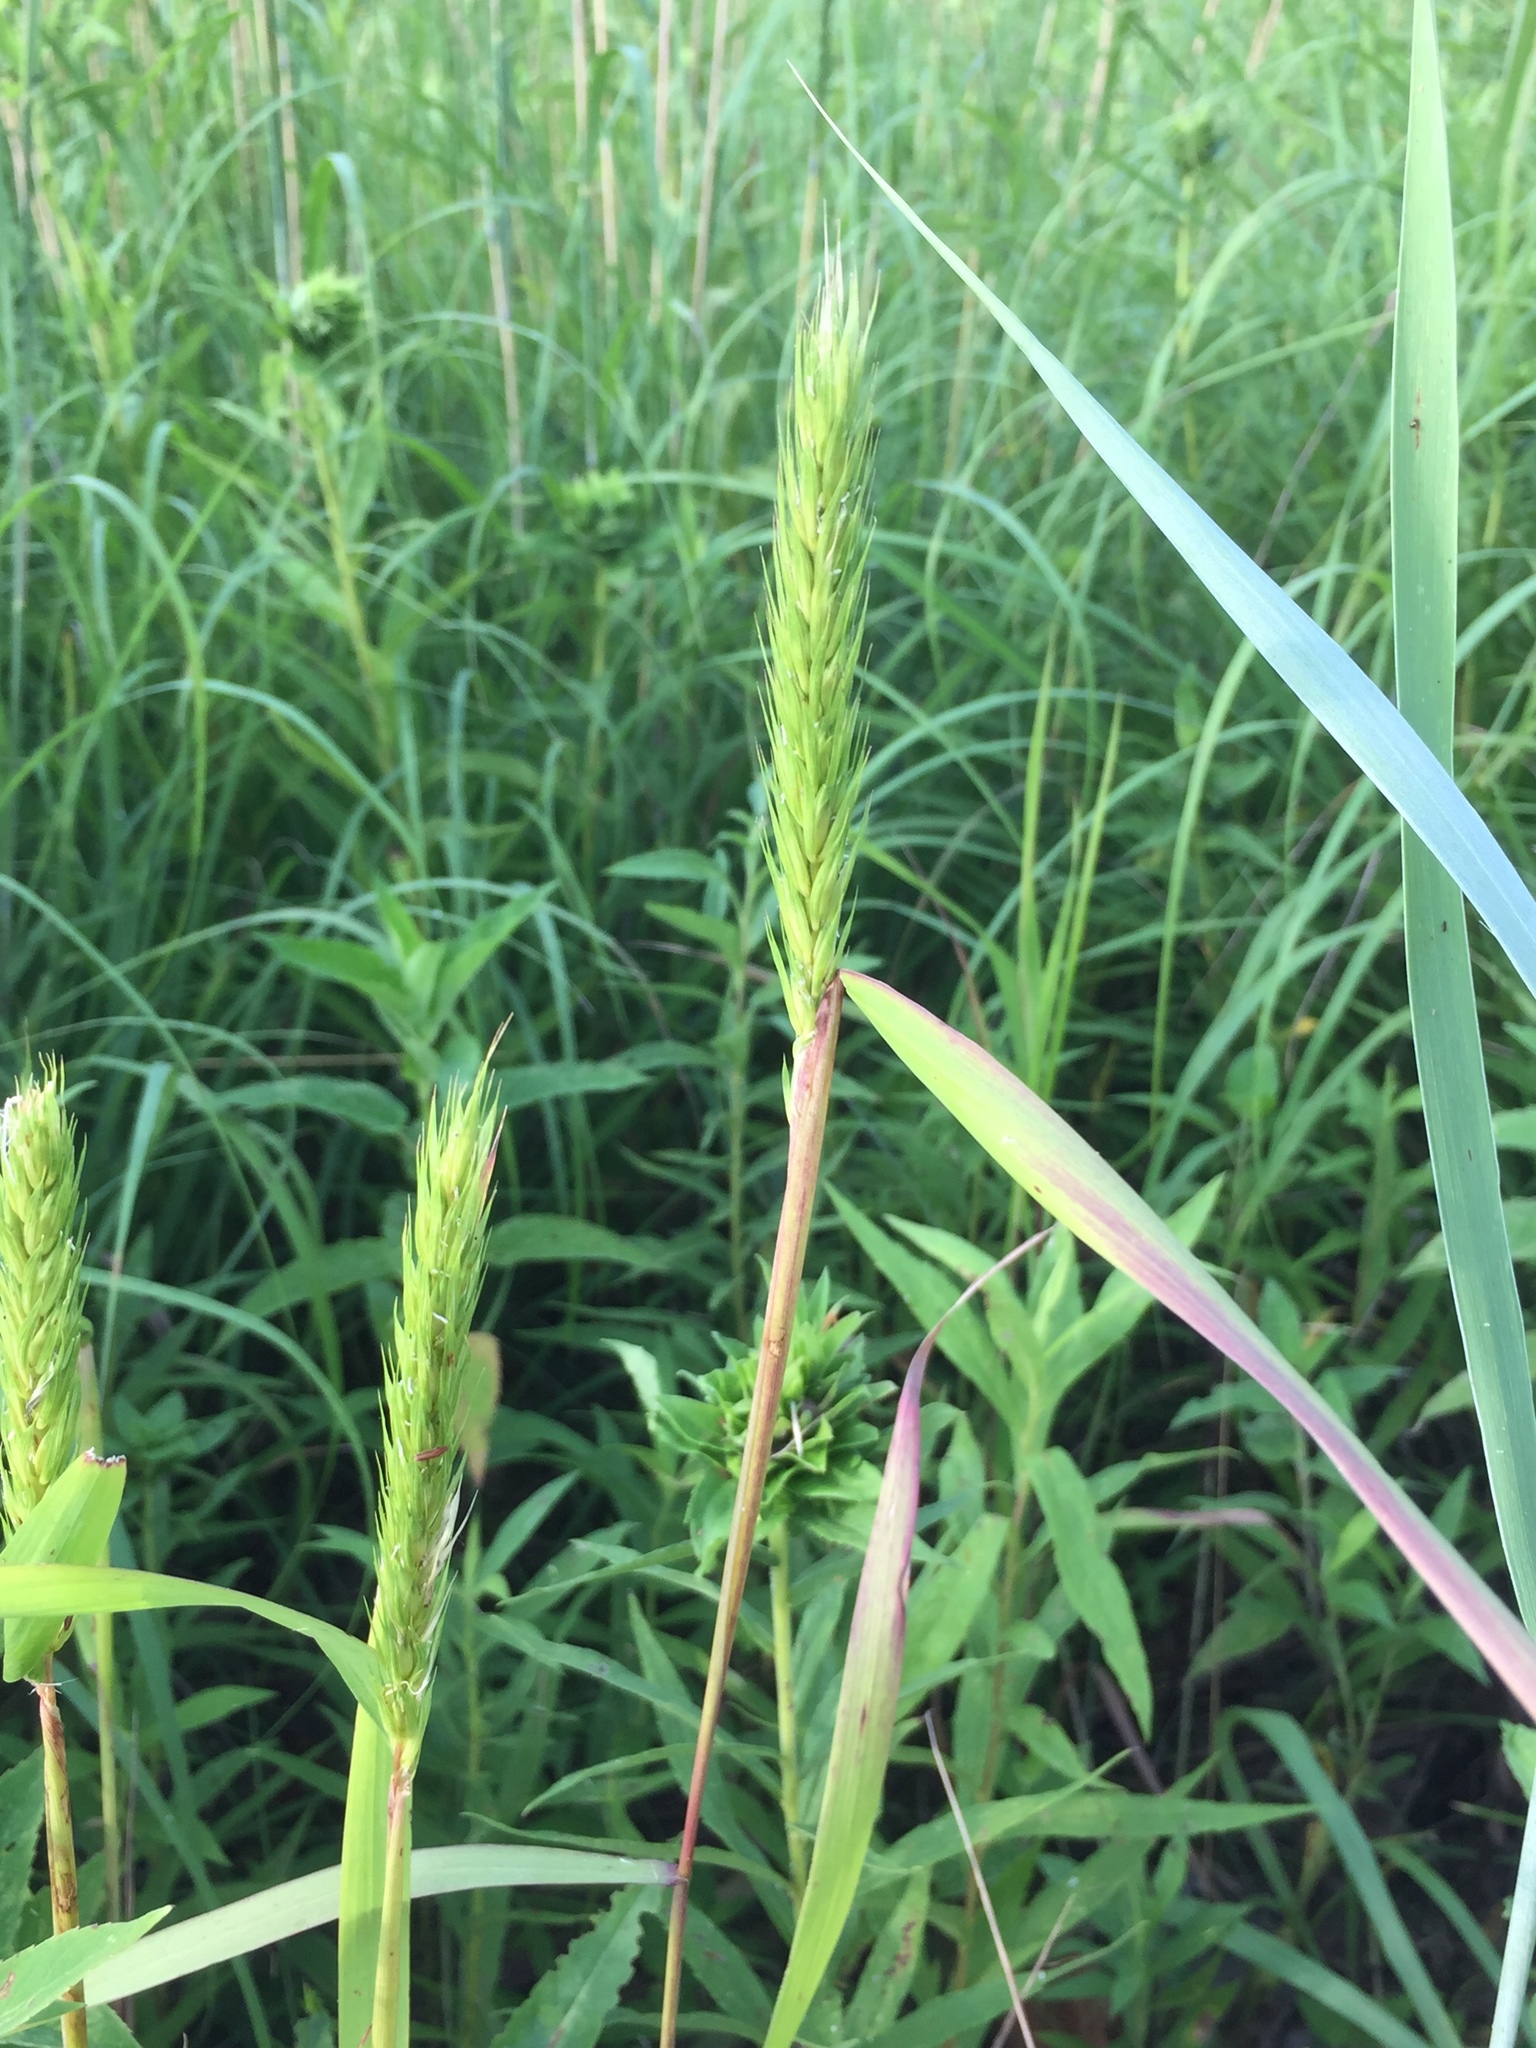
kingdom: Plantae
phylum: Tracheophyta
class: Liliopsida
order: Poales
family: Poaceae
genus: Elymus
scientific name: Elymus virginicus
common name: Common eastern wildrye
